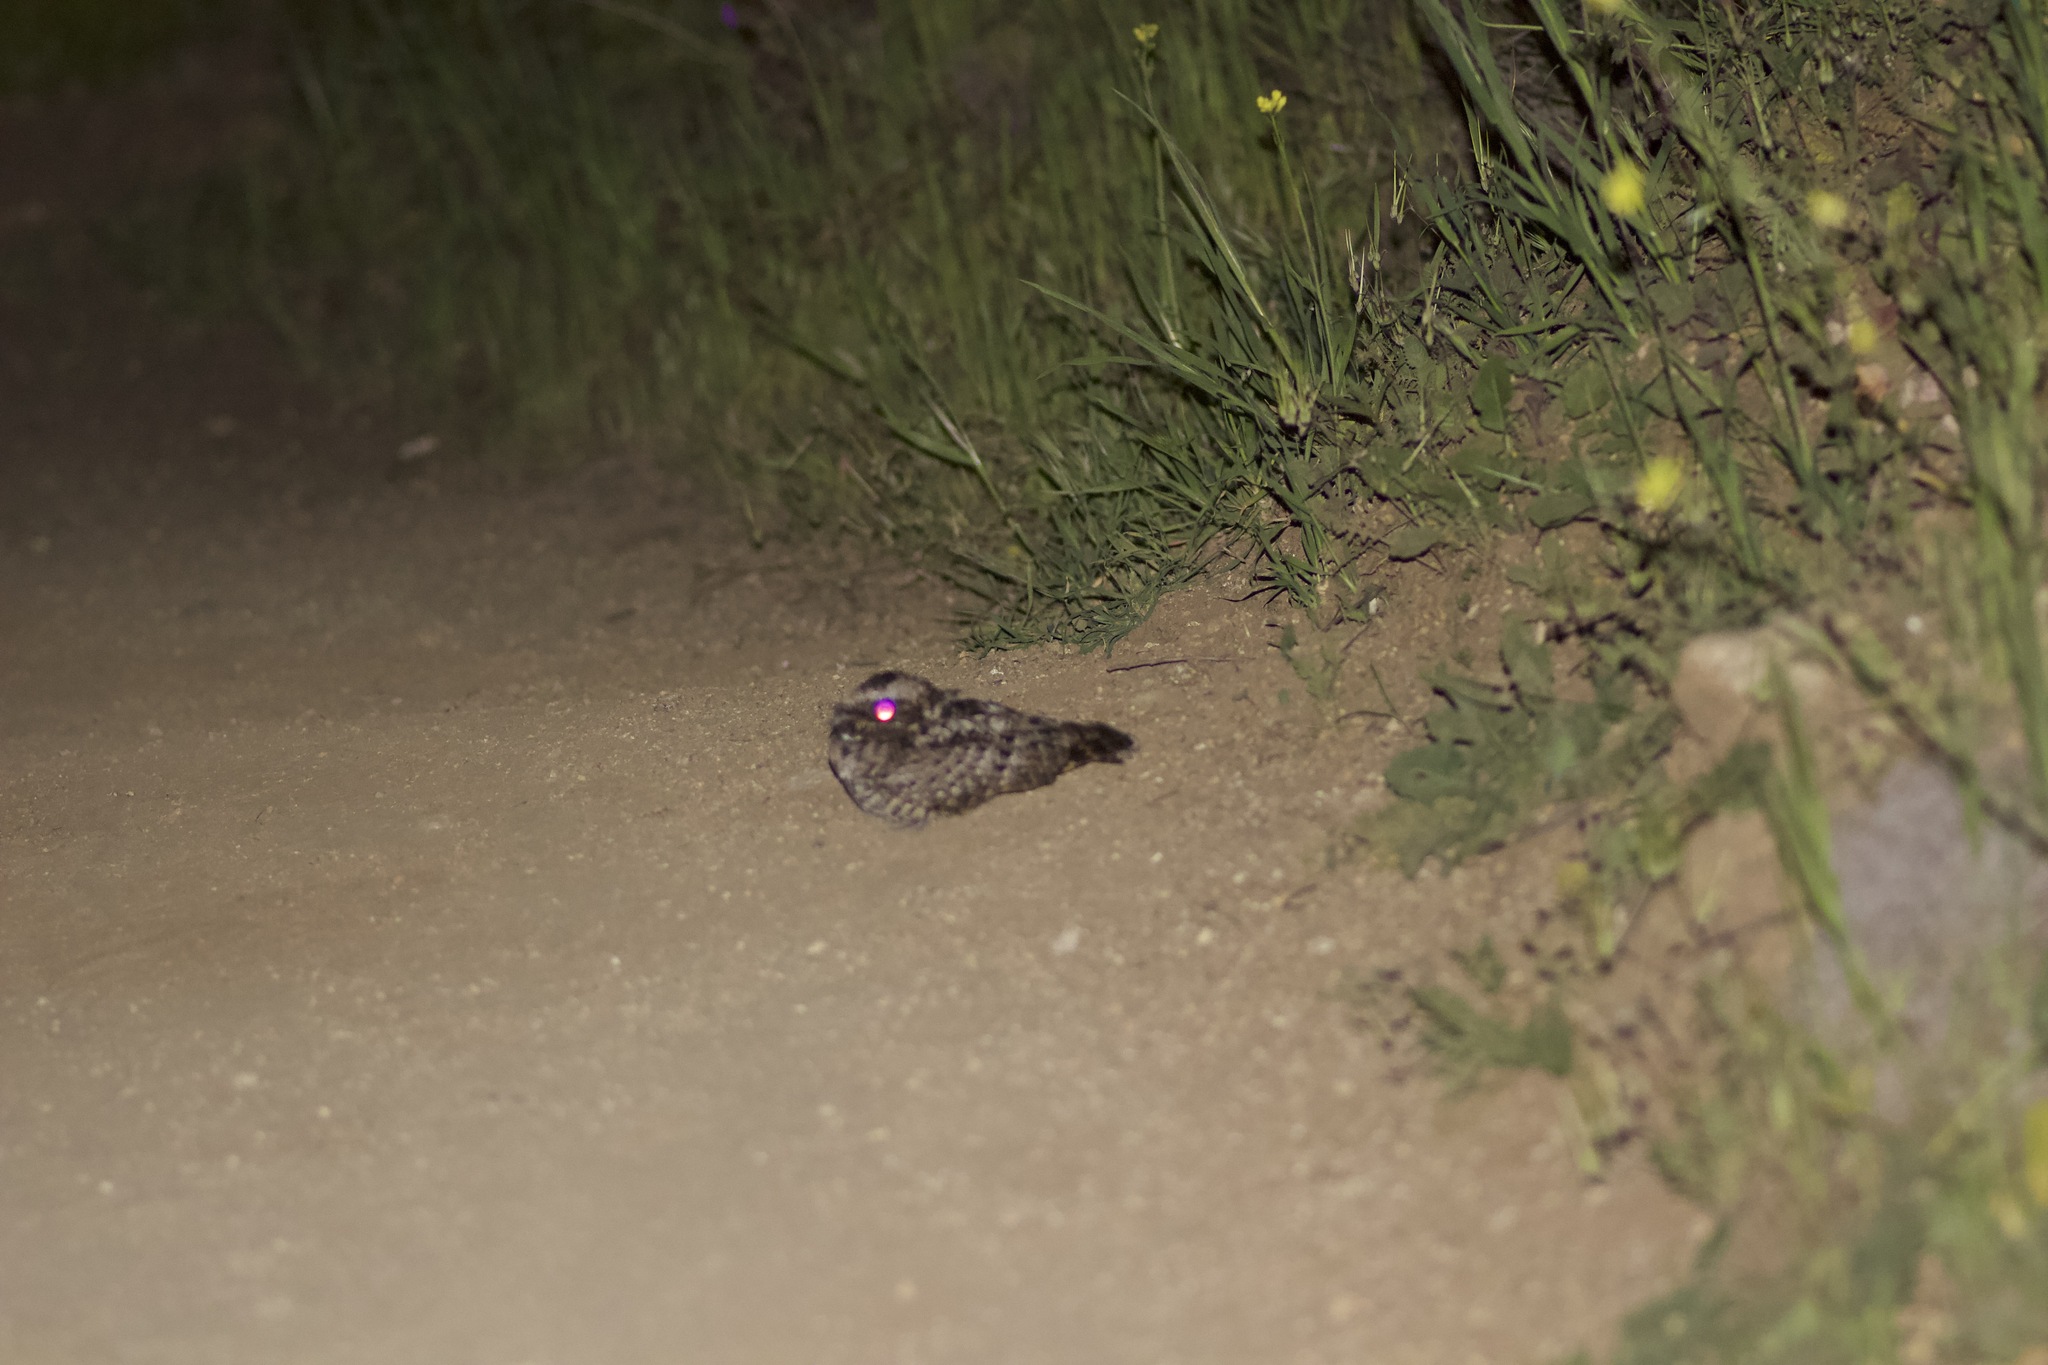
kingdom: Animalia
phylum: Chordata
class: Aves
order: Caprimulgiformes
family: Caprimulgidae
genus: Phalaenoptilus
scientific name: Phalaenoptilus nuttallii
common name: Common poorwill
